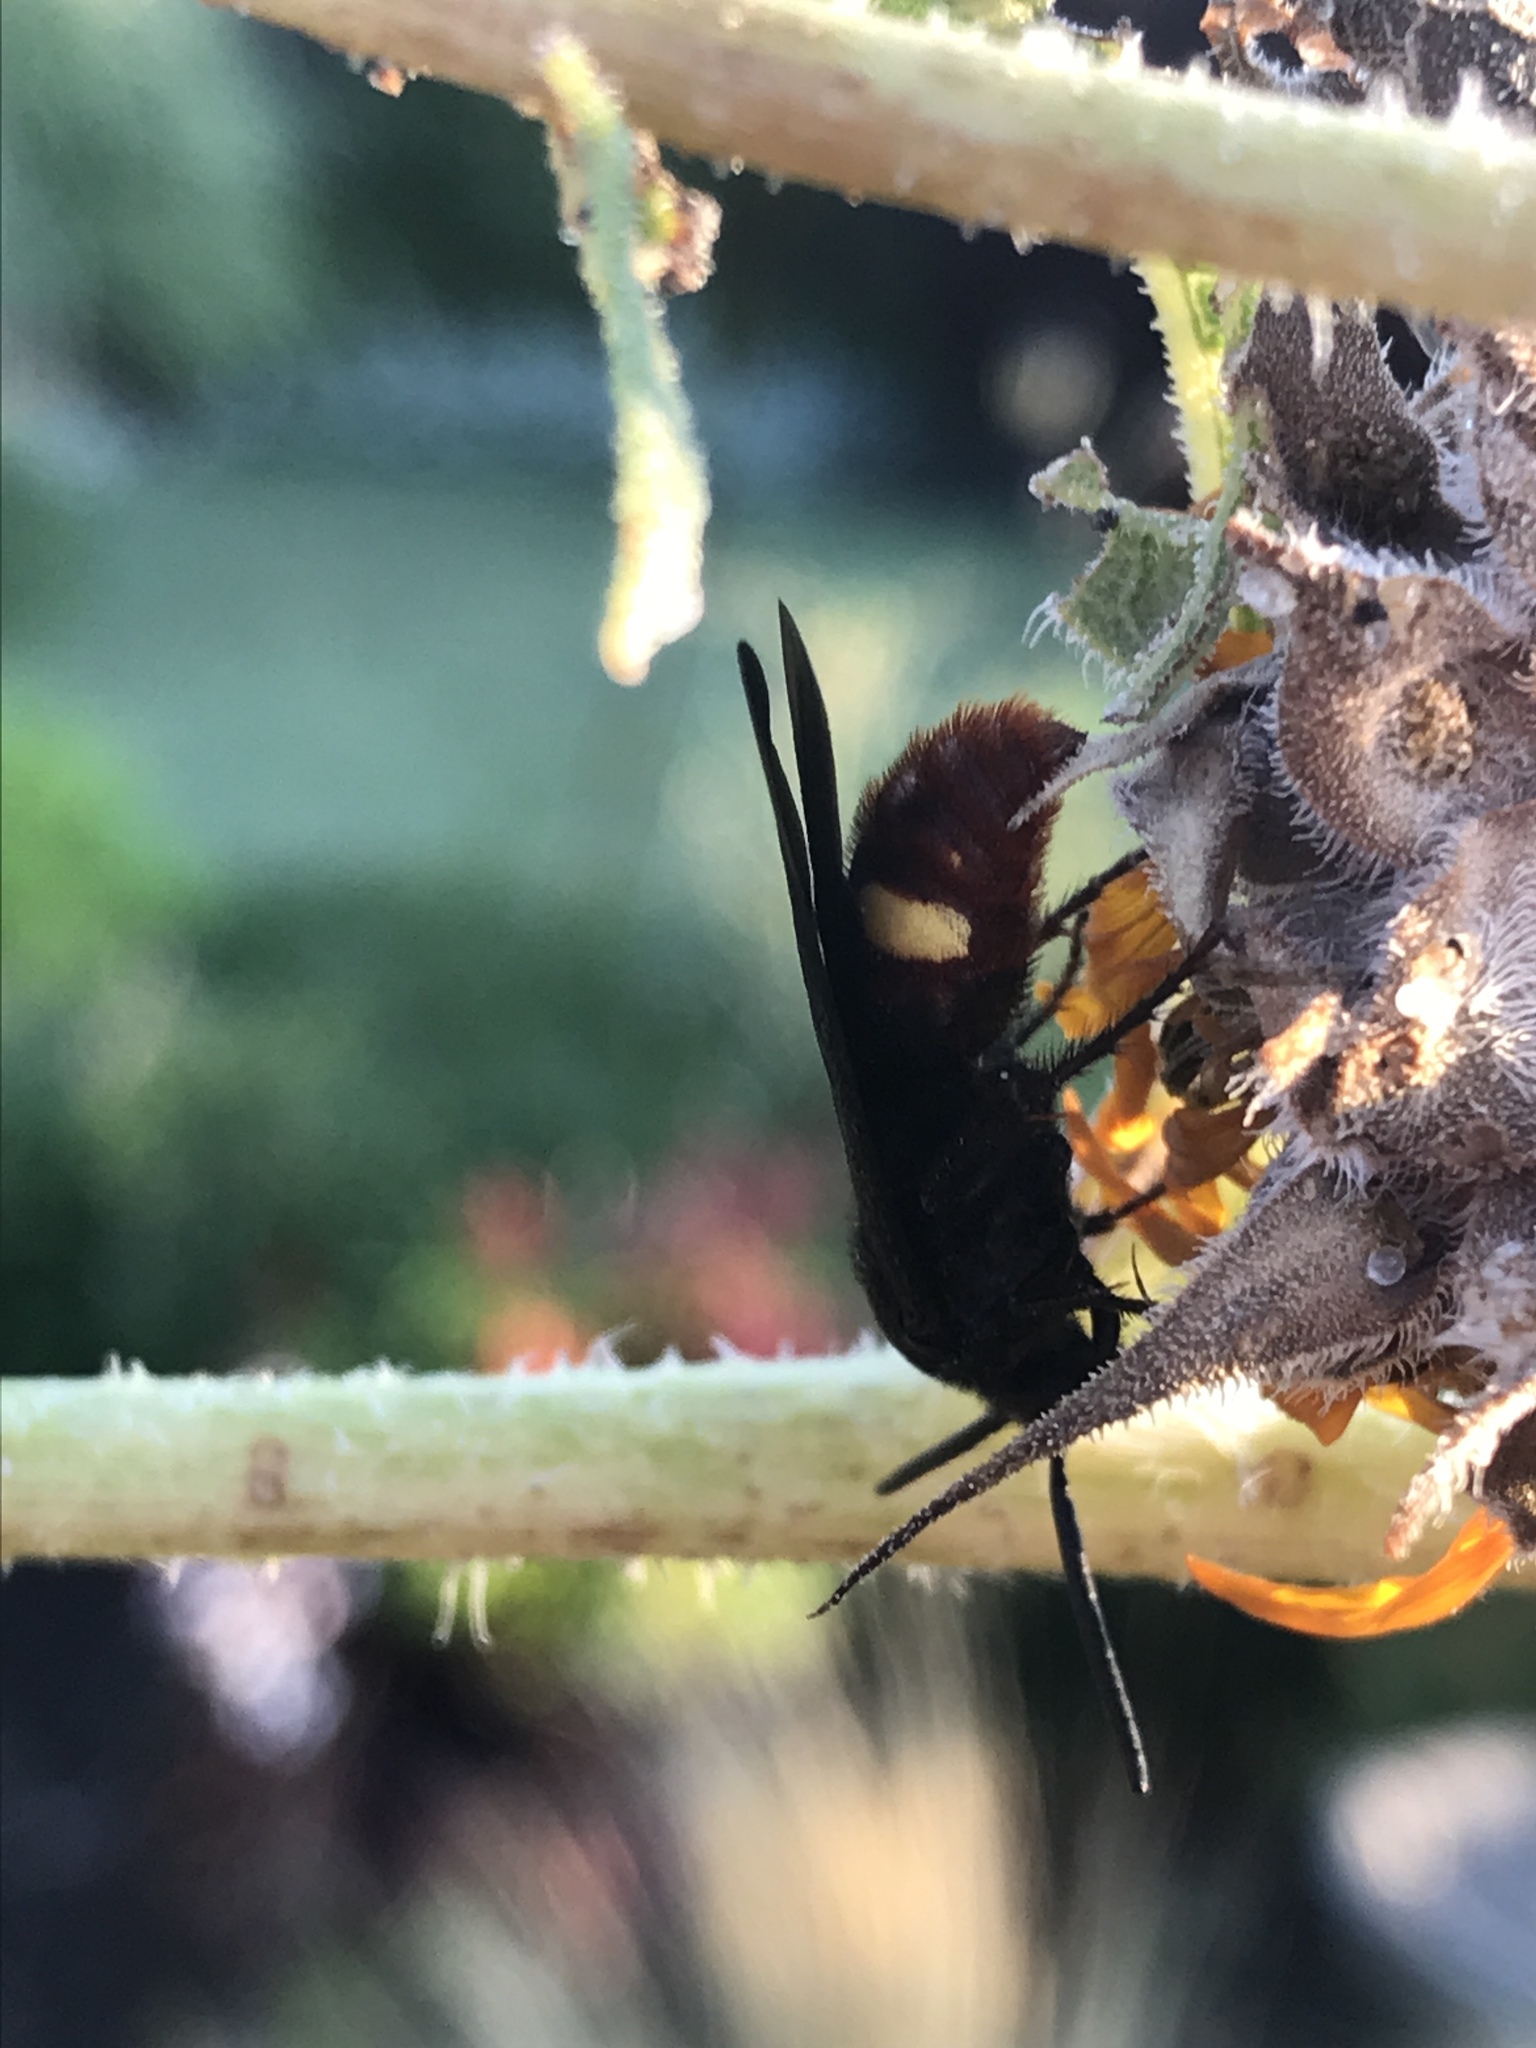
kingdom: Animalia
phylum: Arthropoda
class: Insecta
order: Hymenoptera
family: Scoliidae
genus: Scolia
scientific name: Scolia dubia
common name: Blue-winged scoliid wasp
